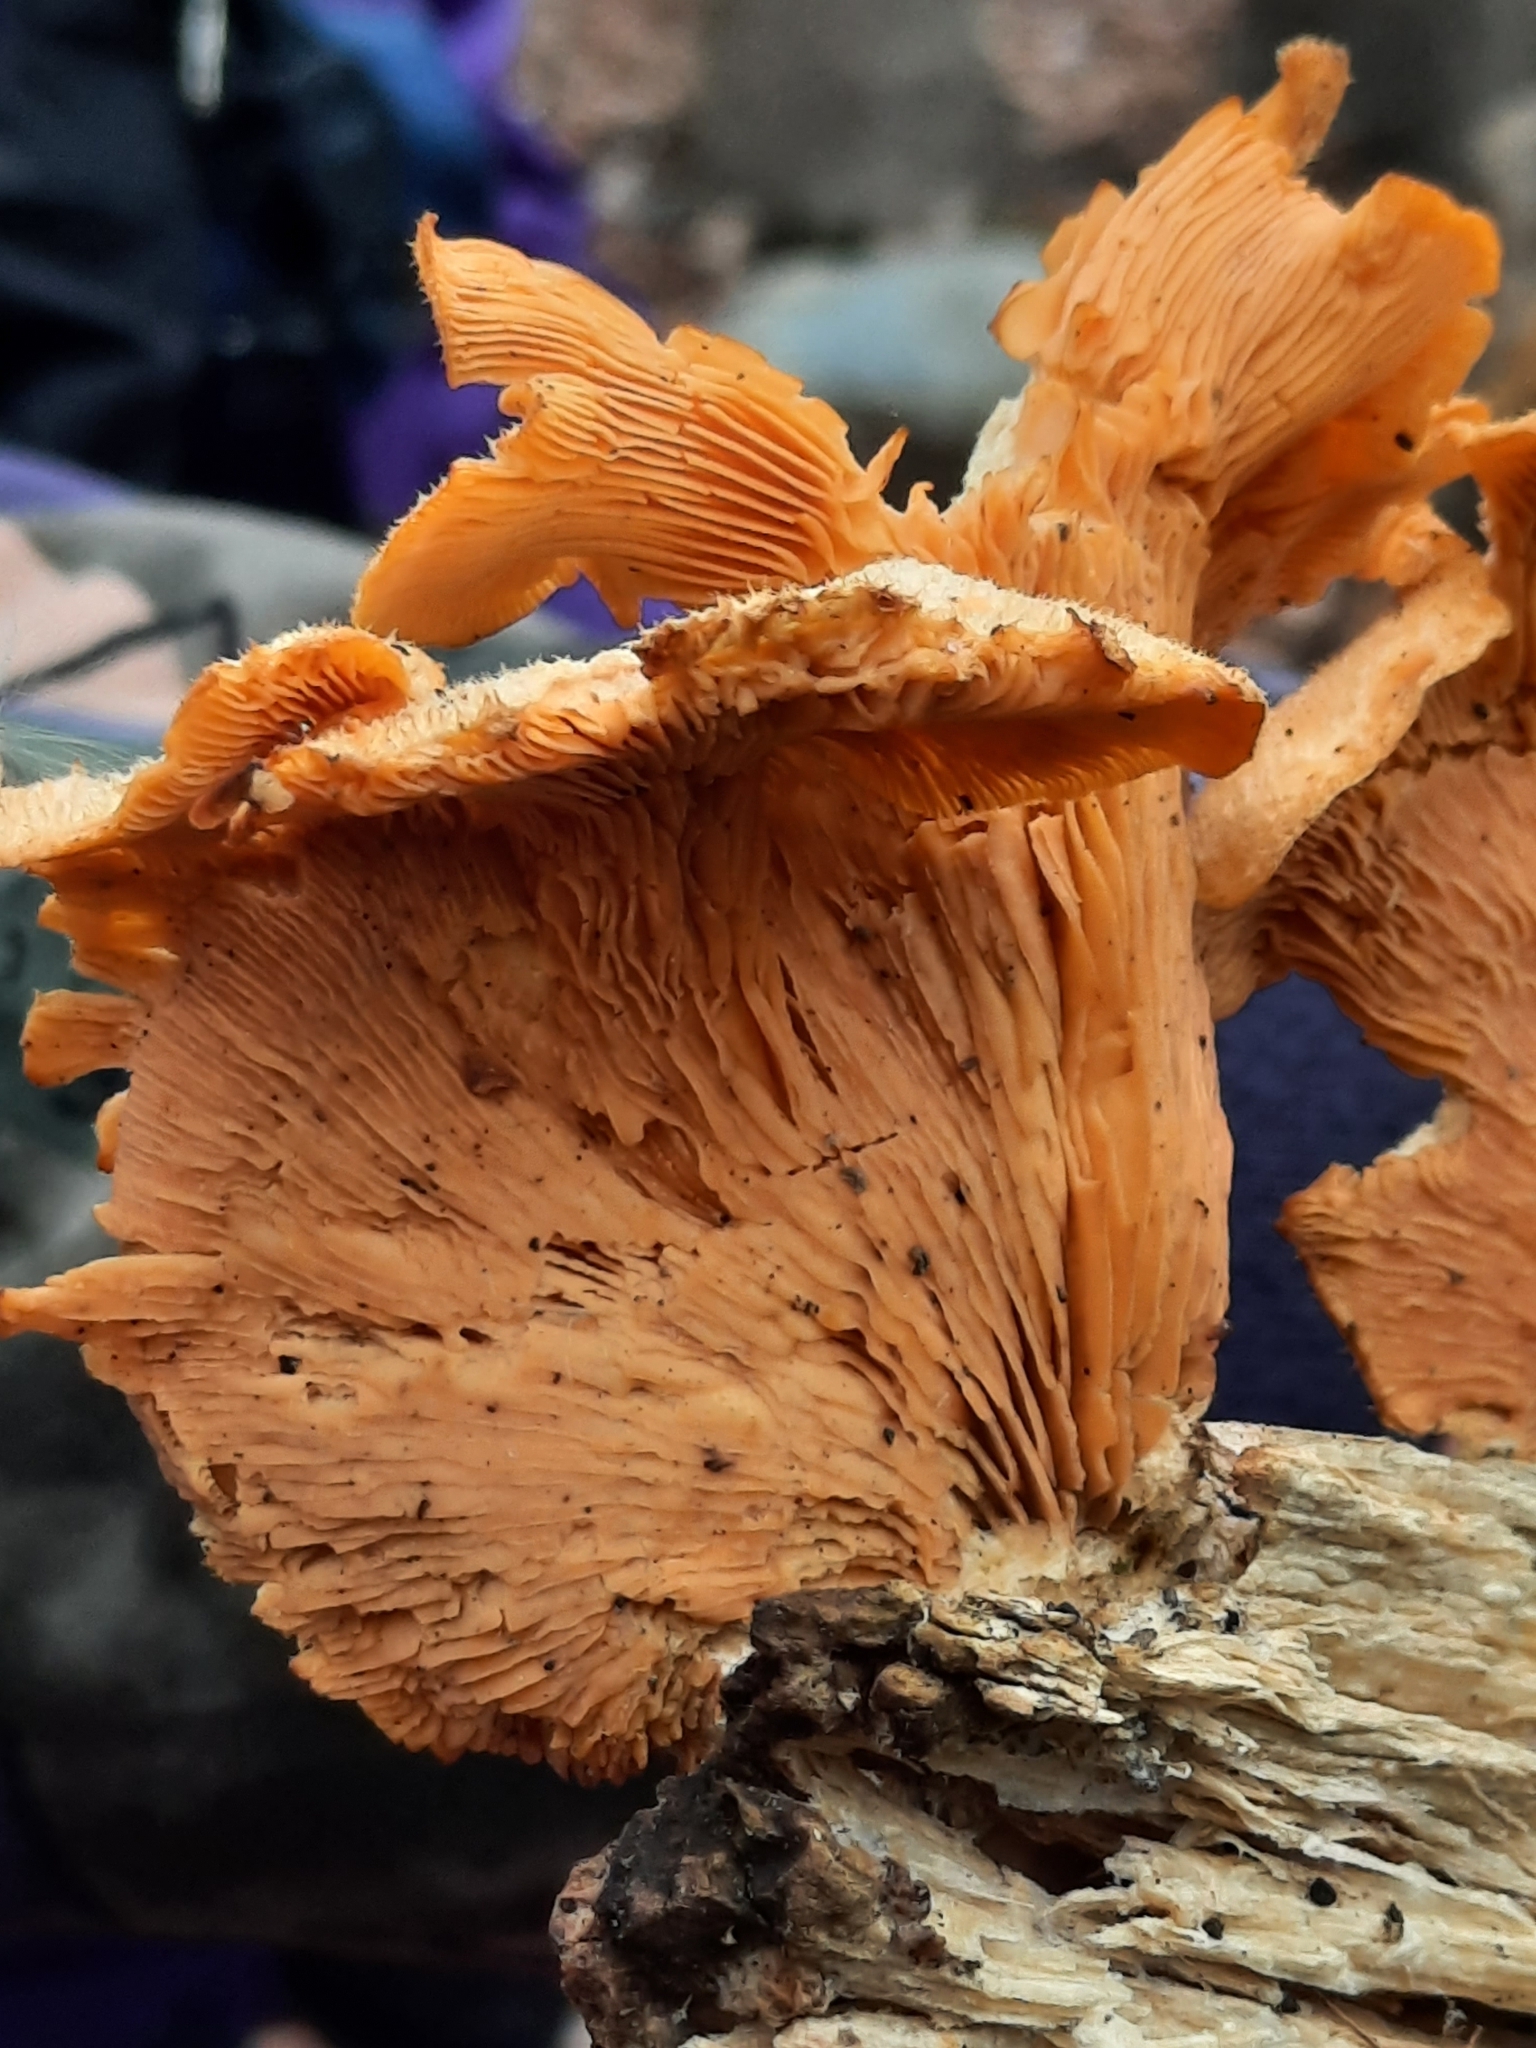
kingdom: Fungi
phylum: Basidiomycota
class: Agaricomycetes
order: Agaricales
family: Phyllotopsidaceae
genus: Phyllotopsis
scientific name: Phyllotopsis nidulans
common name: Orange mock oyster
